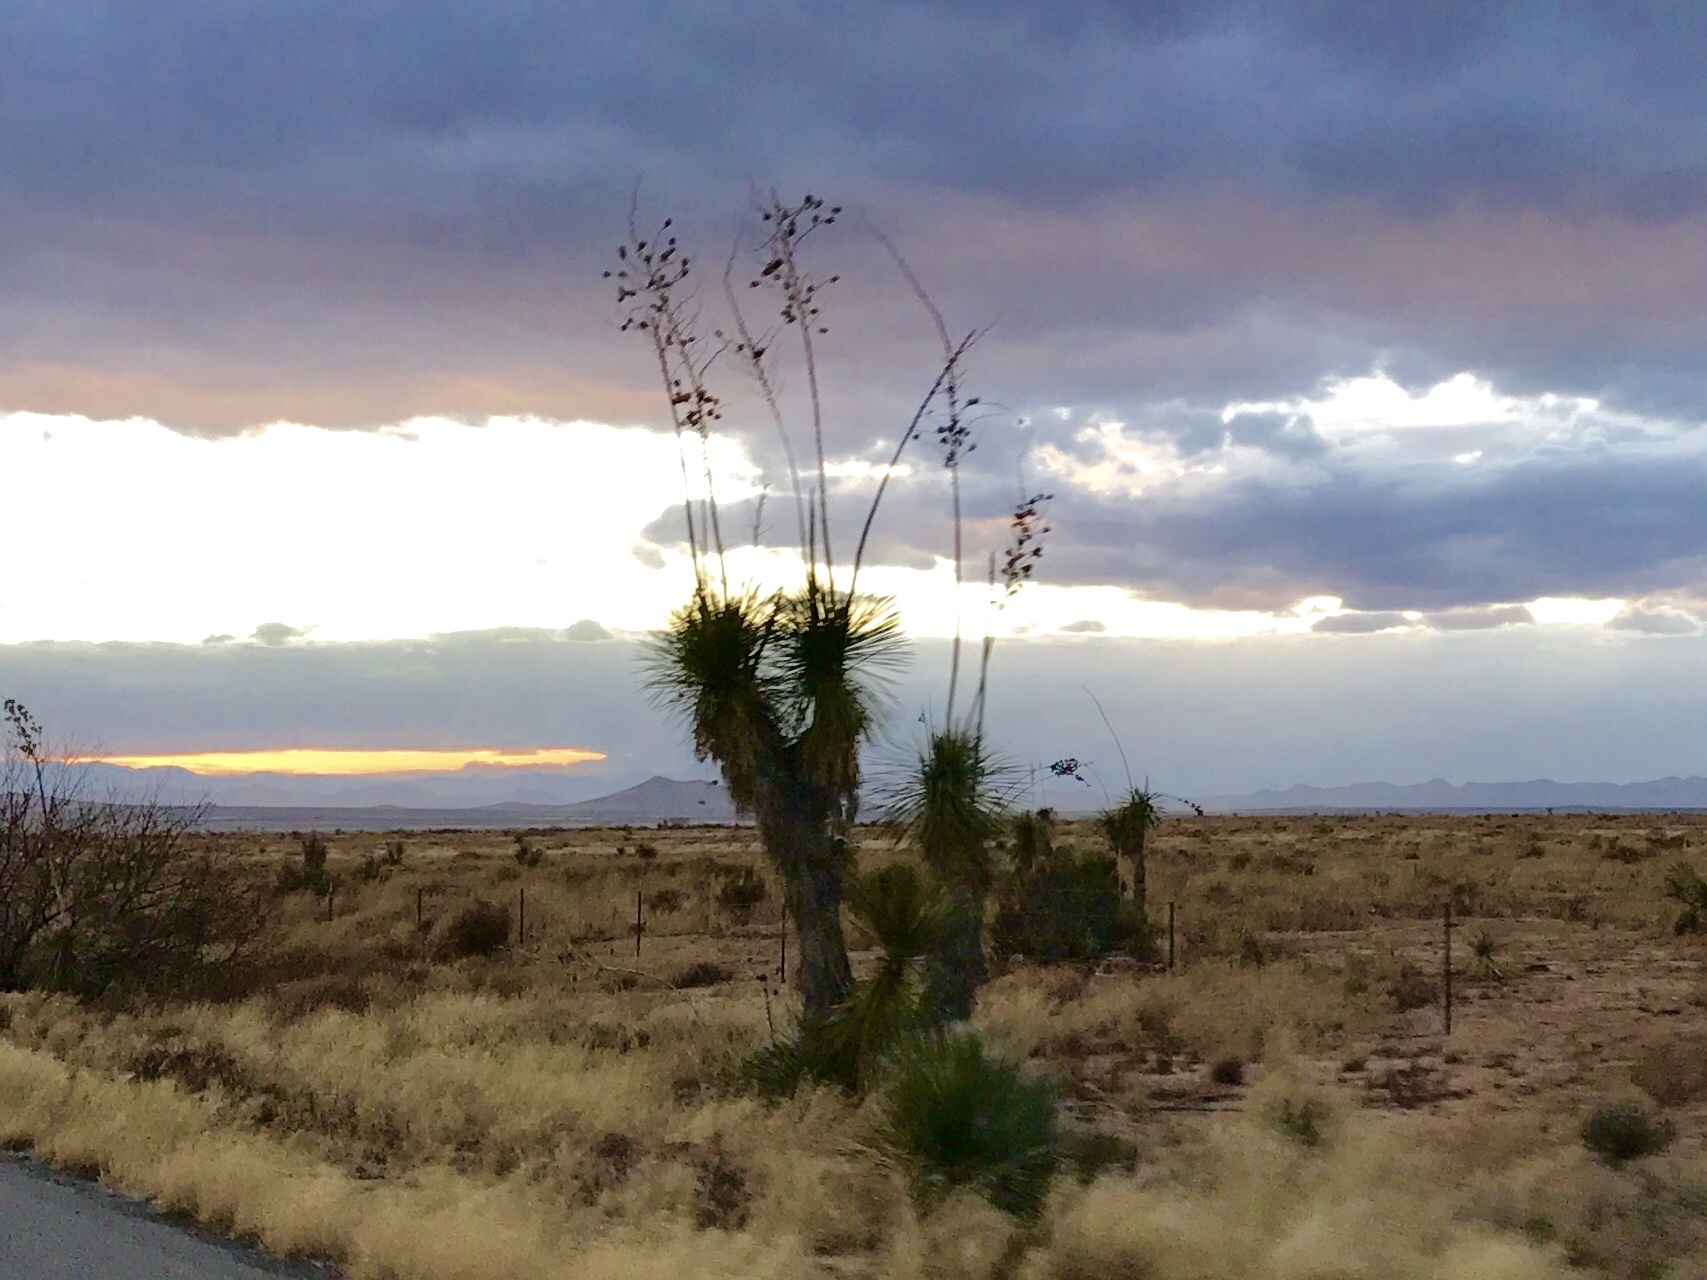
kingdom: Plantae
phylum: Tracheophyta
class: Liliopsida
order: Asparagales
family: Asparagaceae
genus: Yucca
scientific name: Yucca elata
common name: Palmella
